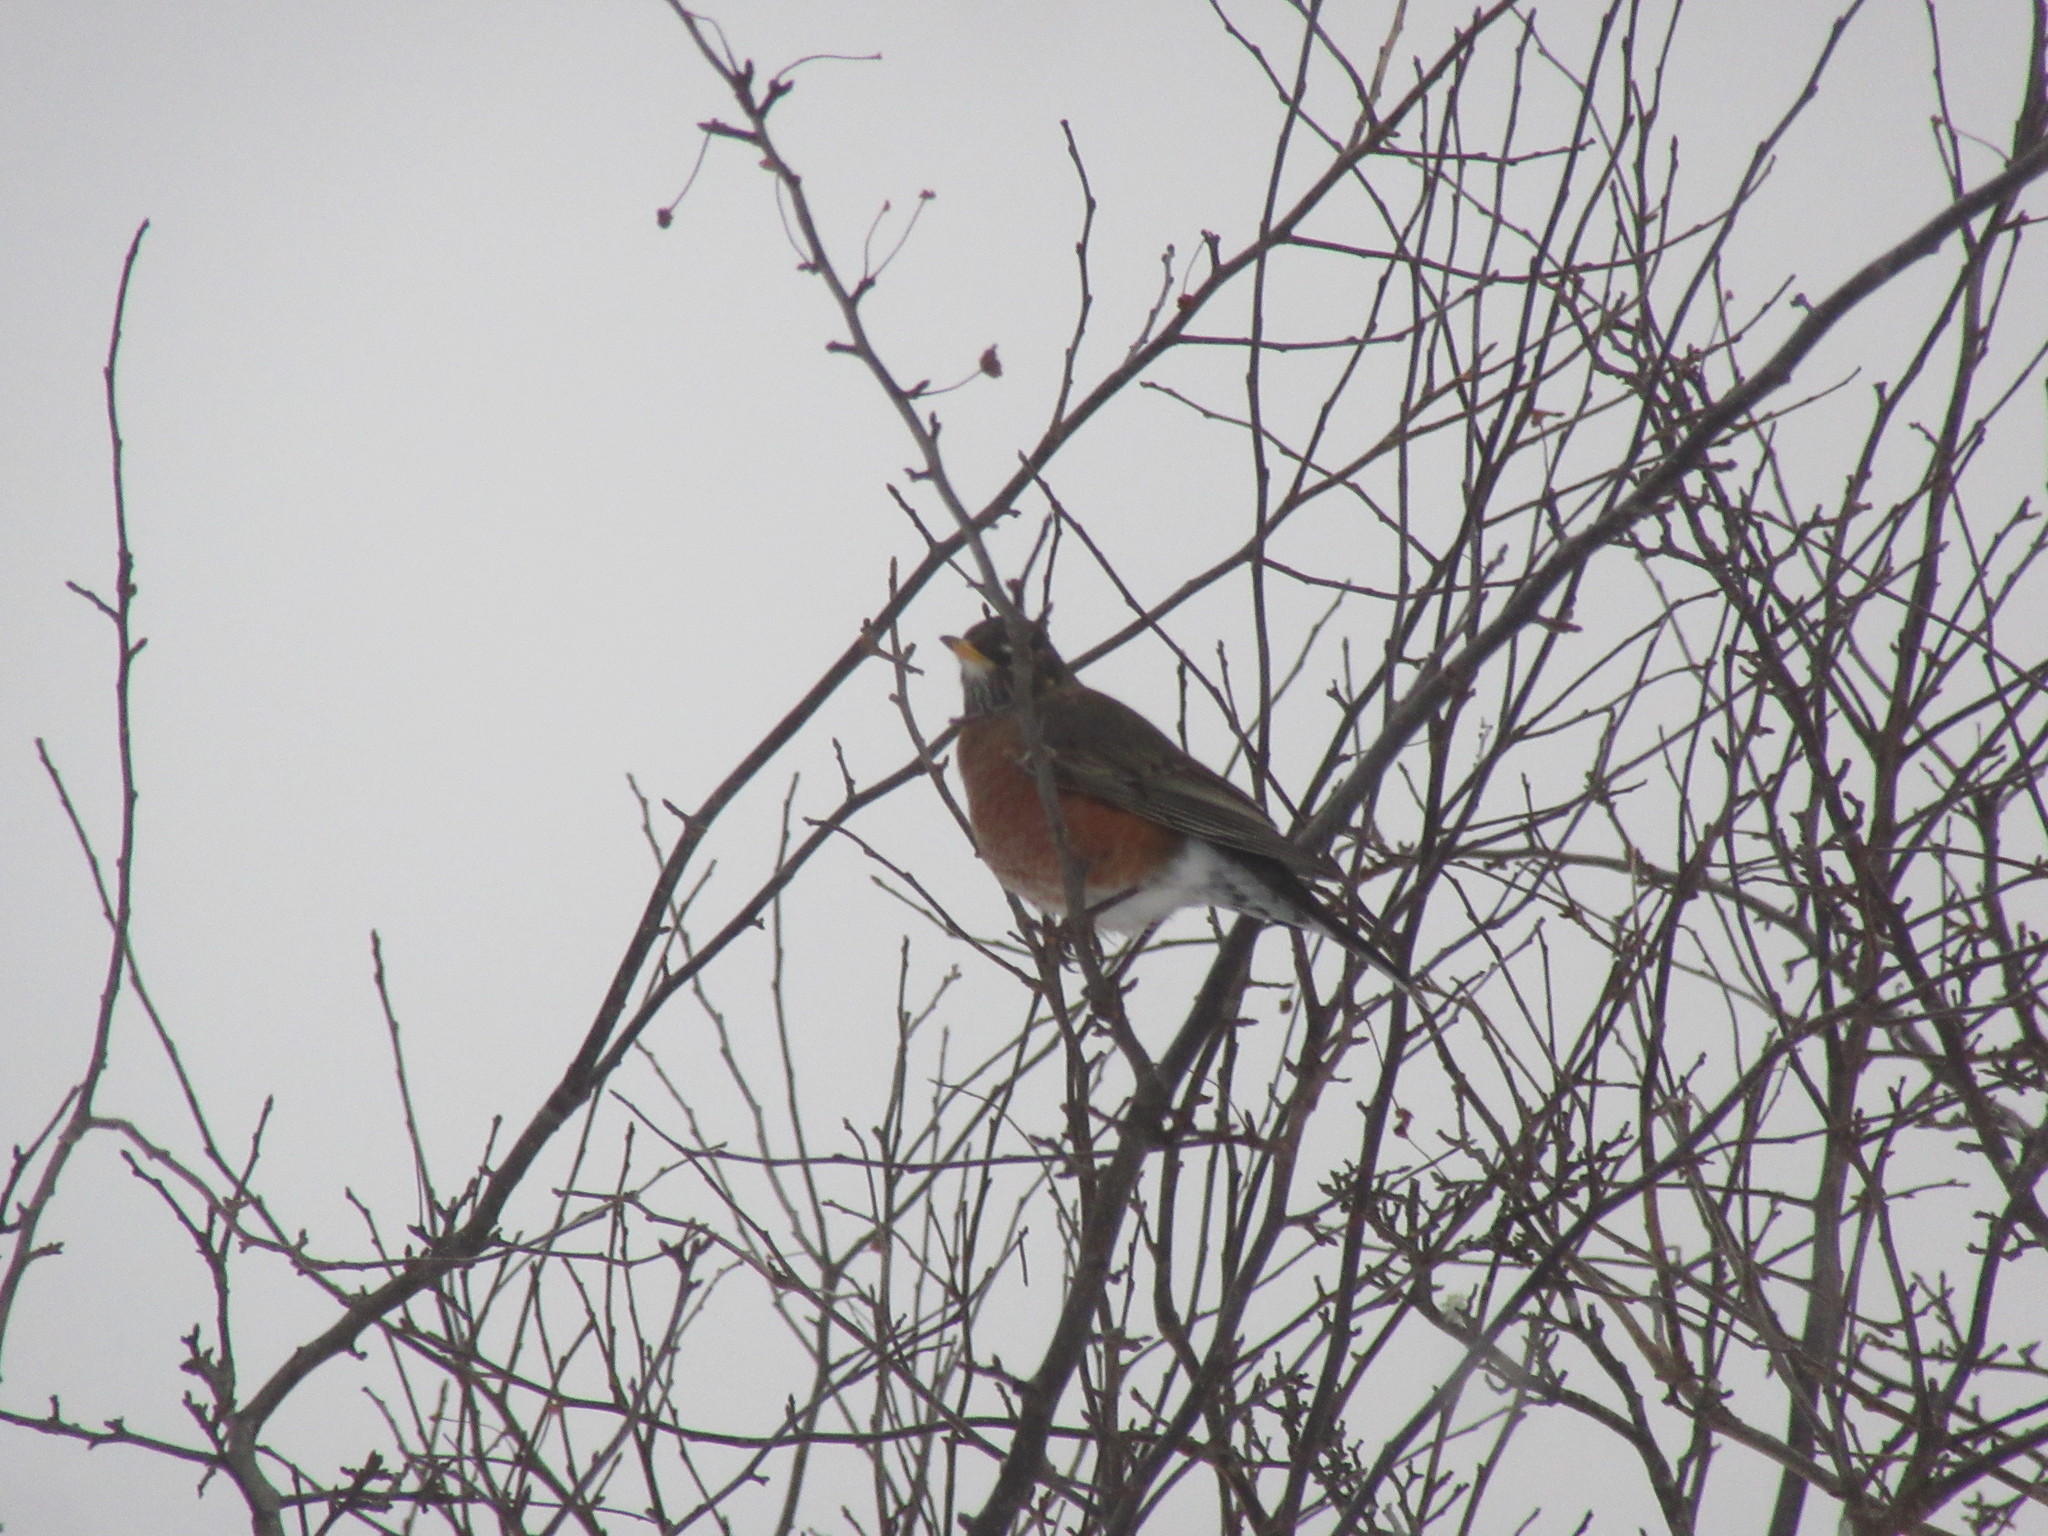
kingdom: Animalia
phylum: Chordata
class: Aves
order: Passeriformes
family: Turdidae
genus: Turdus
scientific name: Turdus migratorius
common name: American robin
